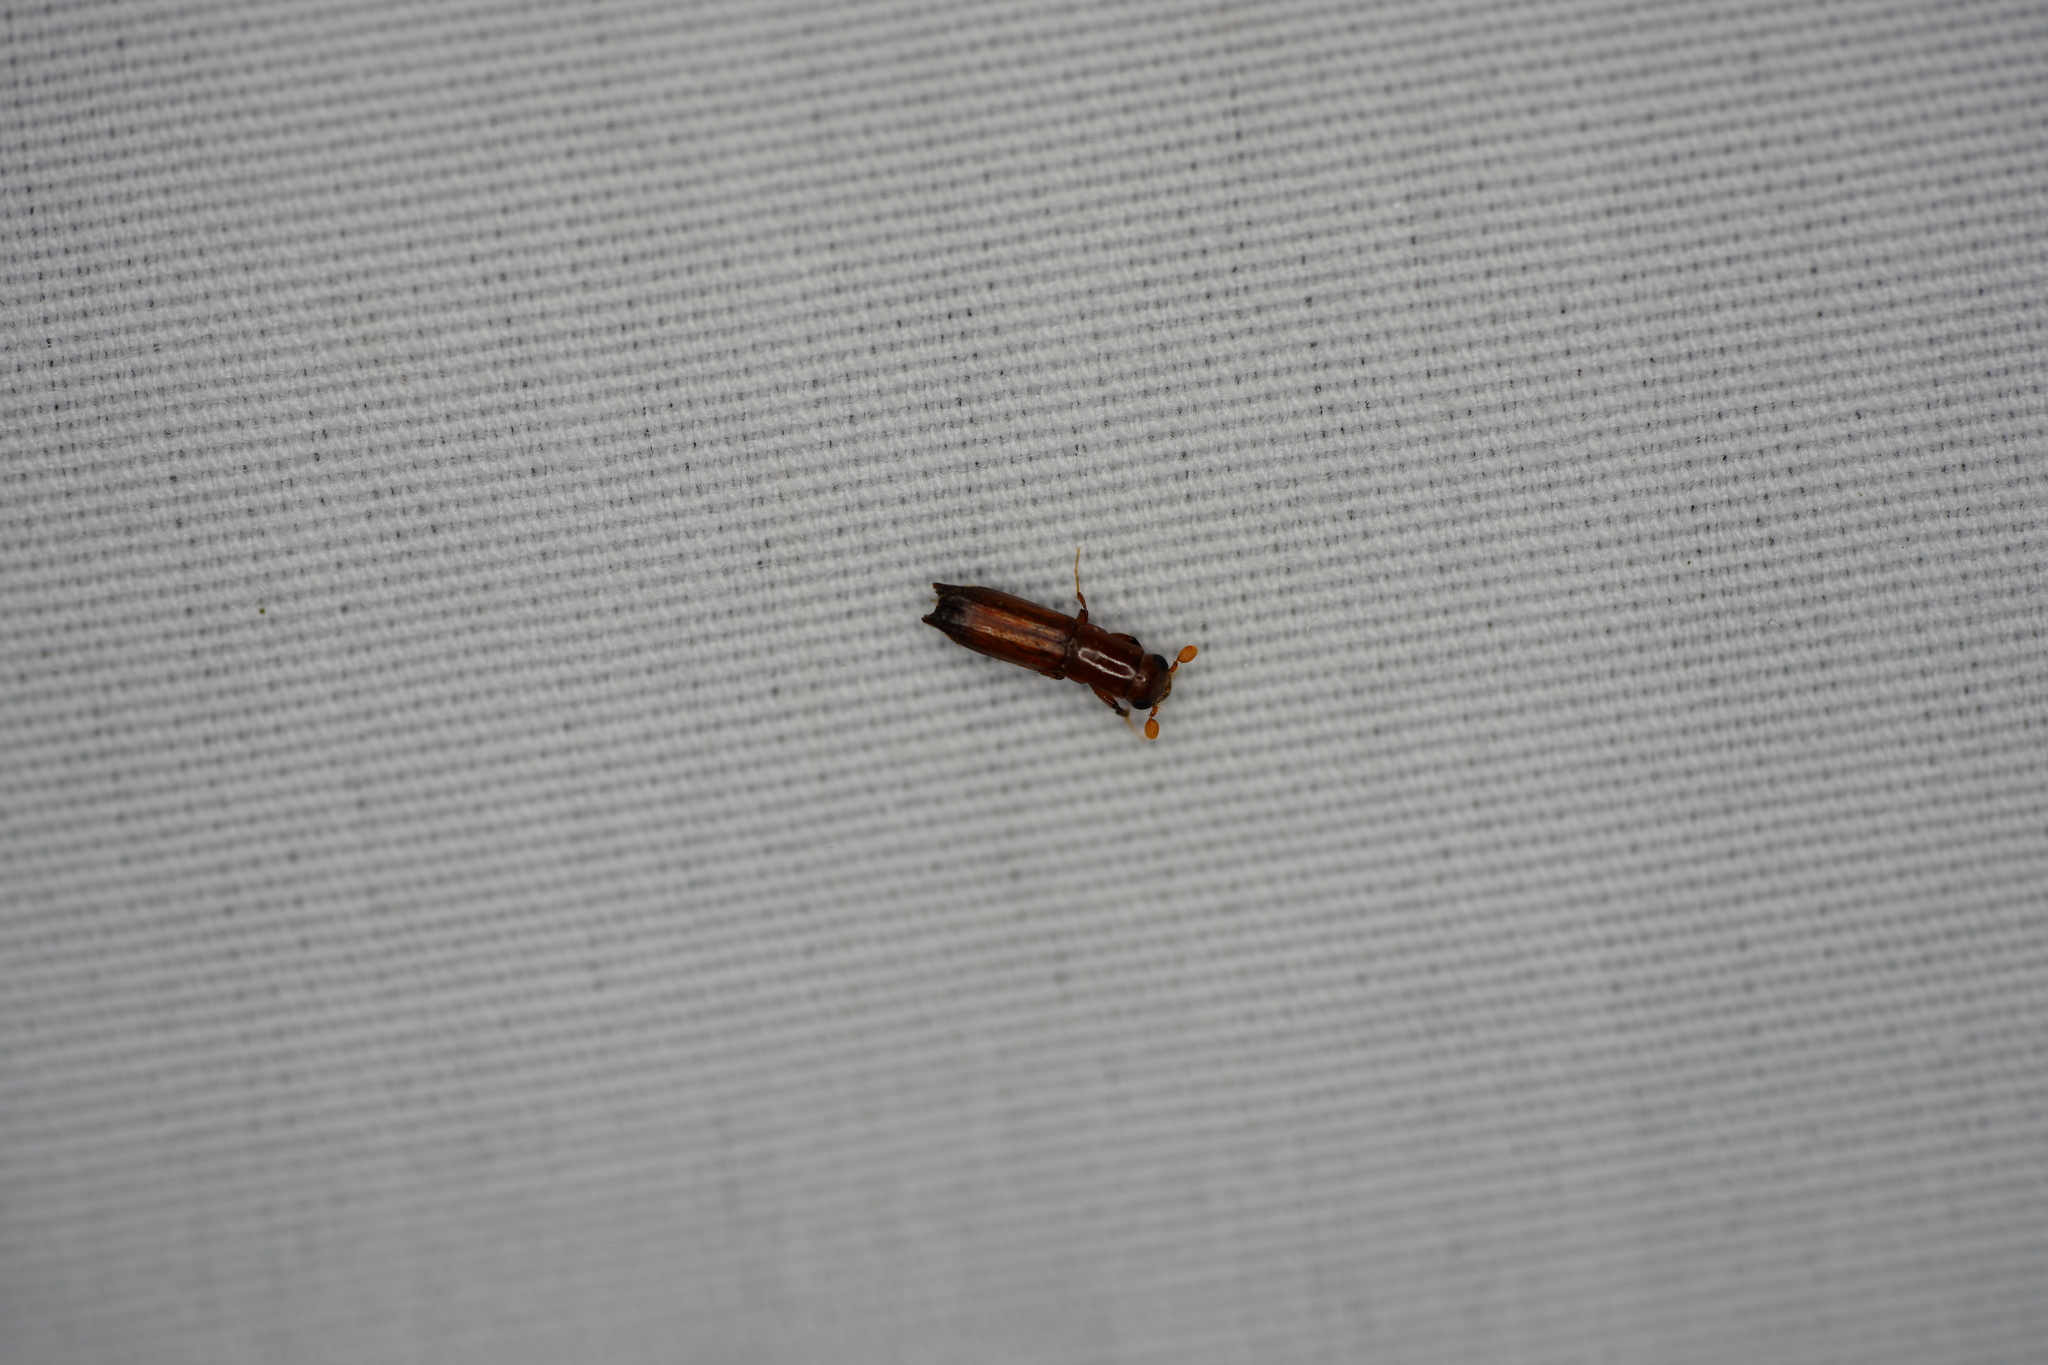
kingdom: Animalia
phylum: Arthropoda
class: Insecta
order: Coleoptera
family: Curculionidae
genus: Euplatypus
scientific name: Euplatypus compositus
